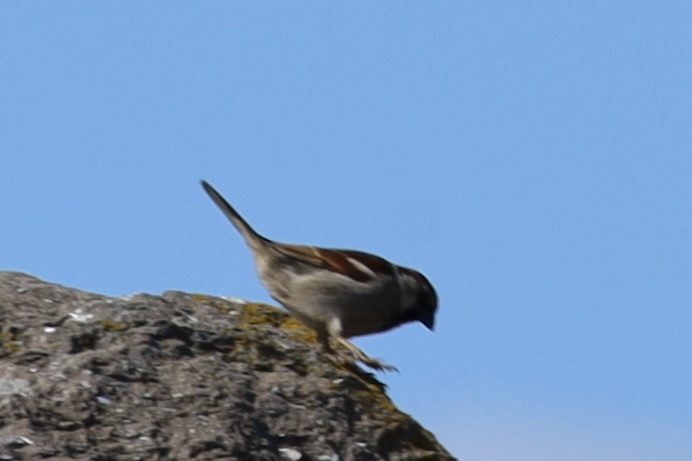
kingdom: Animalia
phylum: Chordata
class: Aves
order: Passeriformes
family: Passeridae
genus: Passer
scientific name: Passer domesticus
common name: House sparrow
